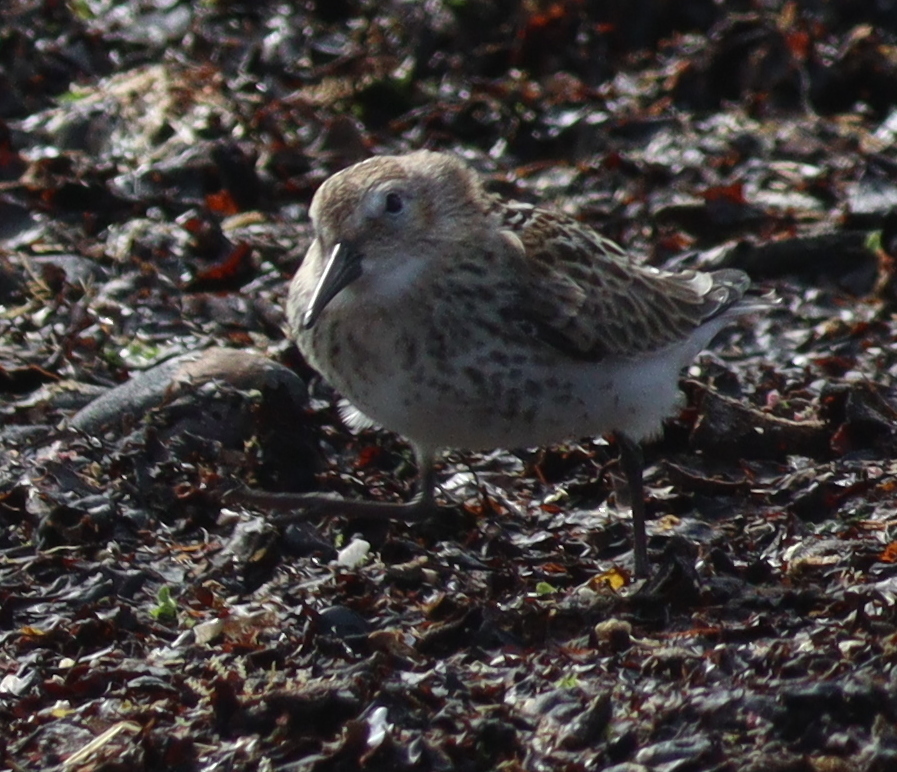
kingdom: Animalia
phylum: Chordata
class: Aves
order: Charadriiformes
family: Scolopacidae
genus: Calidris
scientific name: Calidris alpina
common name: Dunlin
